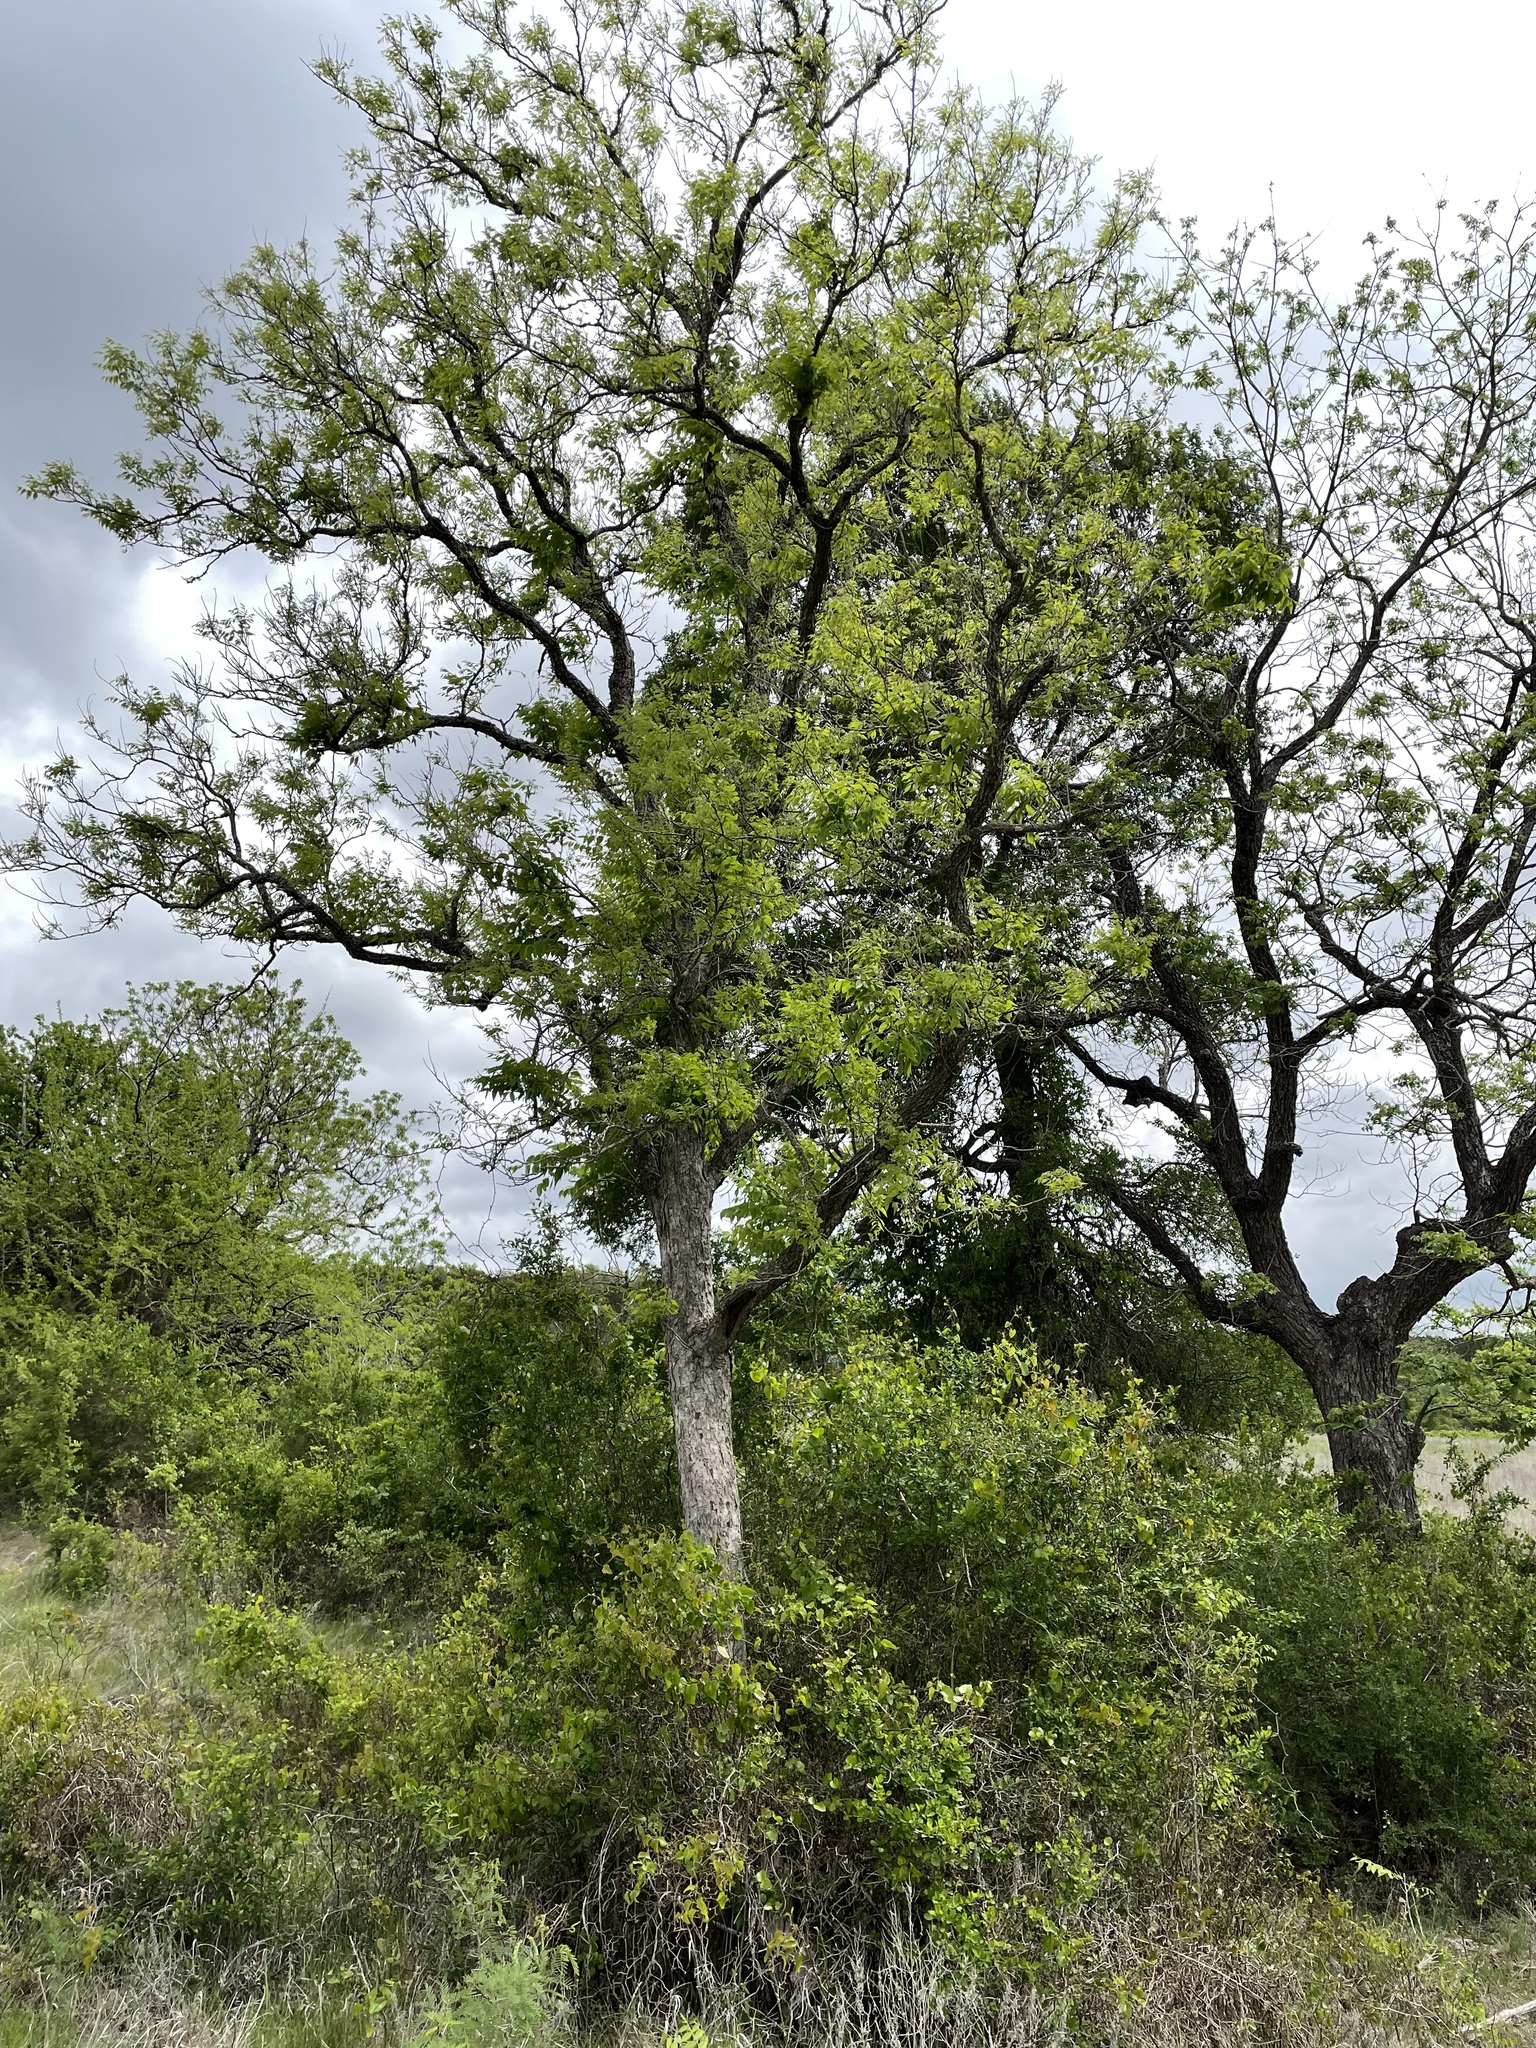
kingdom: Plantae
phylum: Tracheophyta
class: Magnoliopsida
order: Sapindales
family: Sapindaceae
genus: Sapindus
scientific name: Sapindus drummondii
